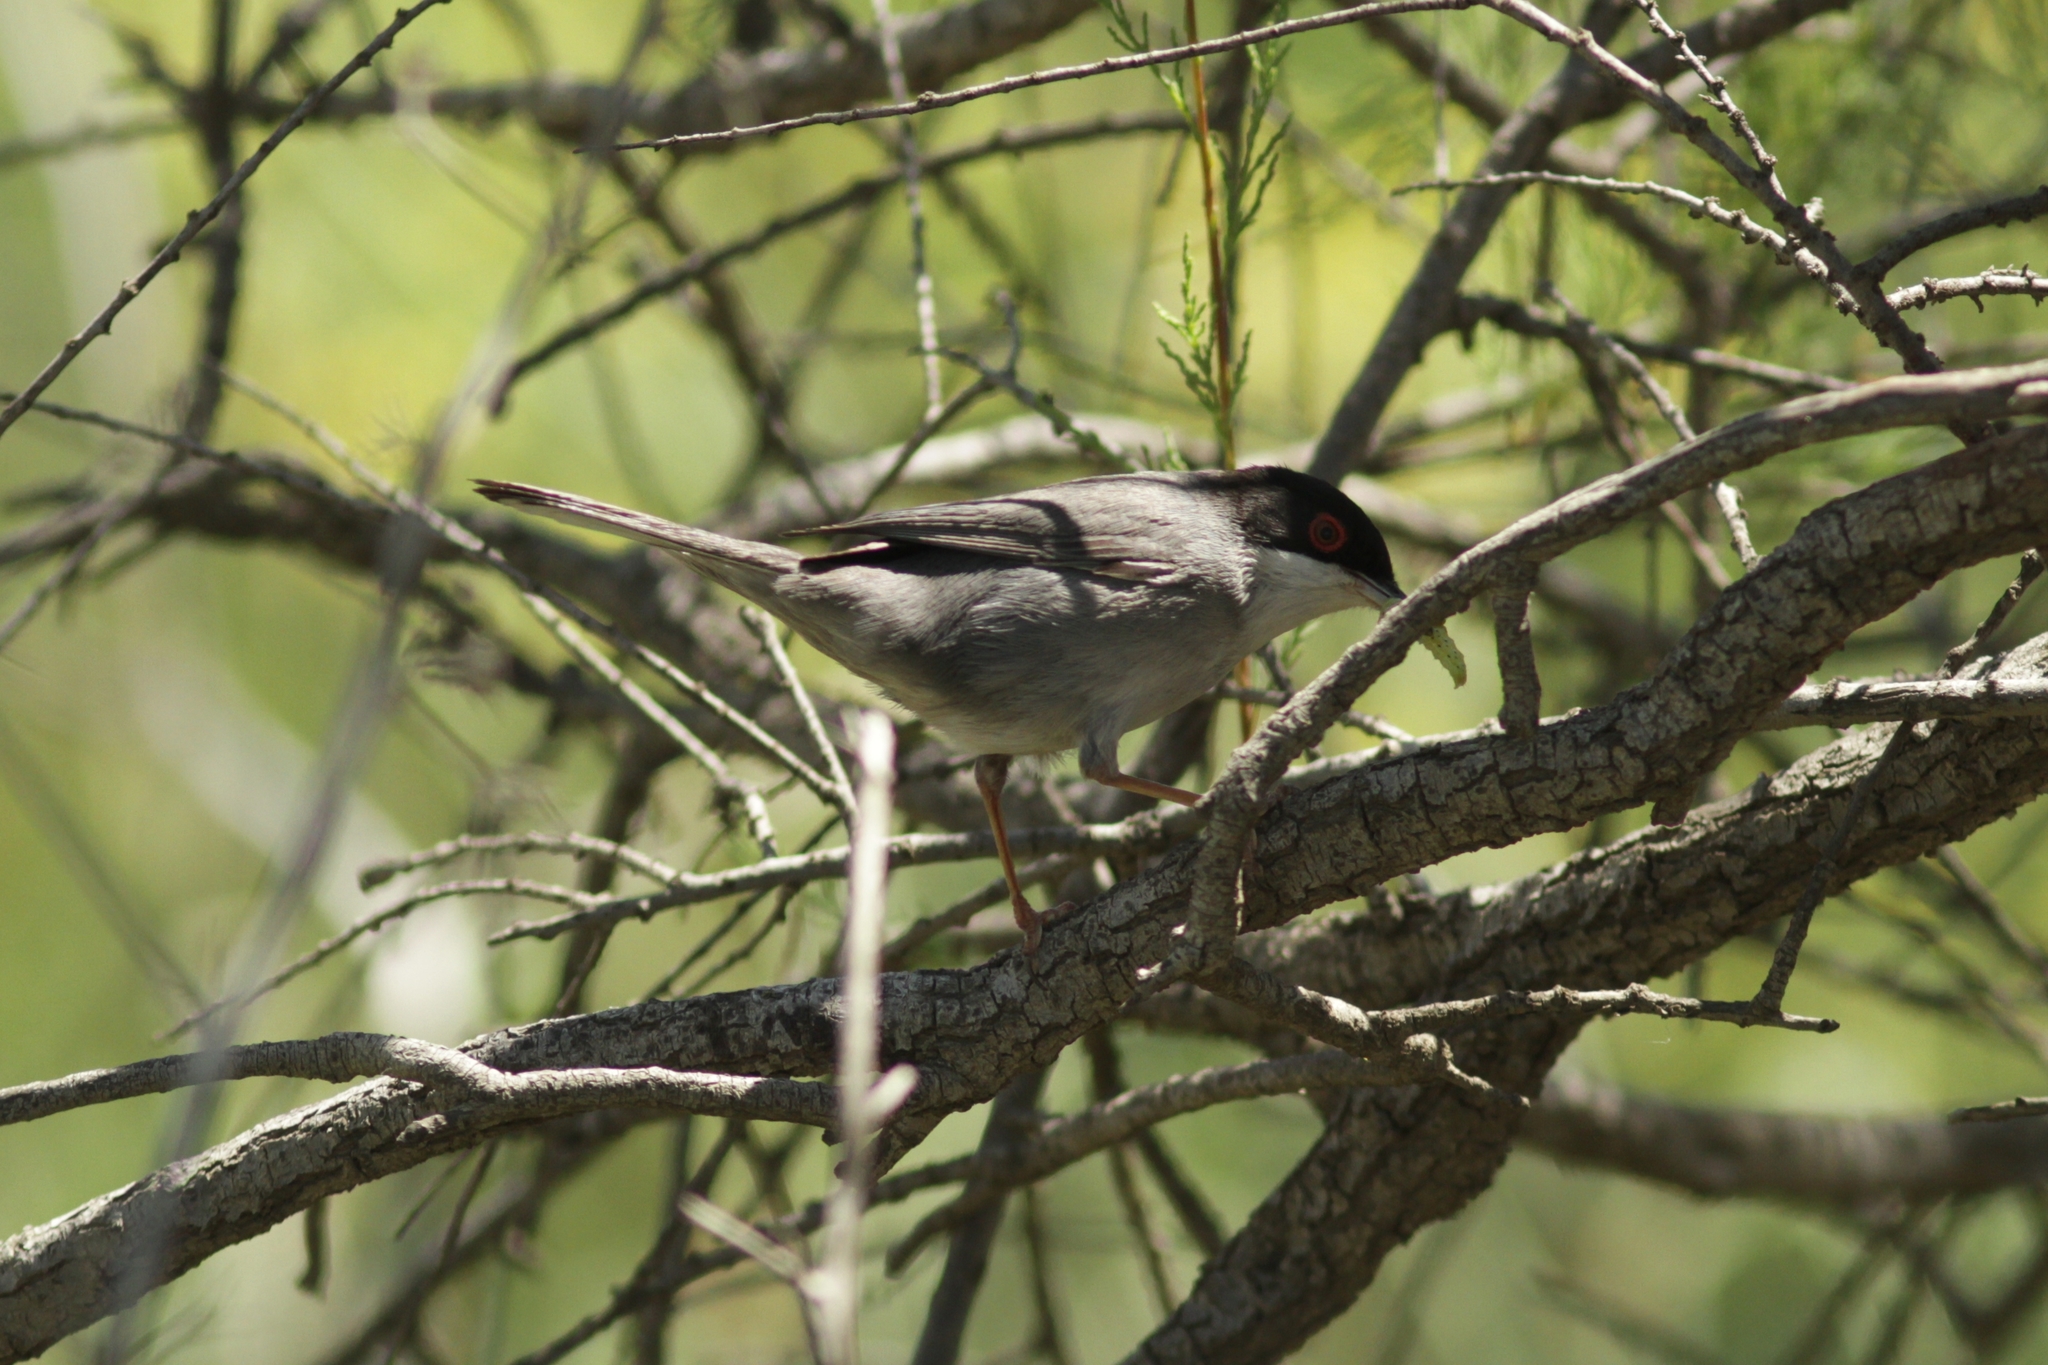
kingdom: Animalia
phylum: Chordata
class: Aves
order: Passeriformes
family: Sylviidae
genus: Curruca
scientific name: Curruca melanocephala
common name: Sardinian warbler
